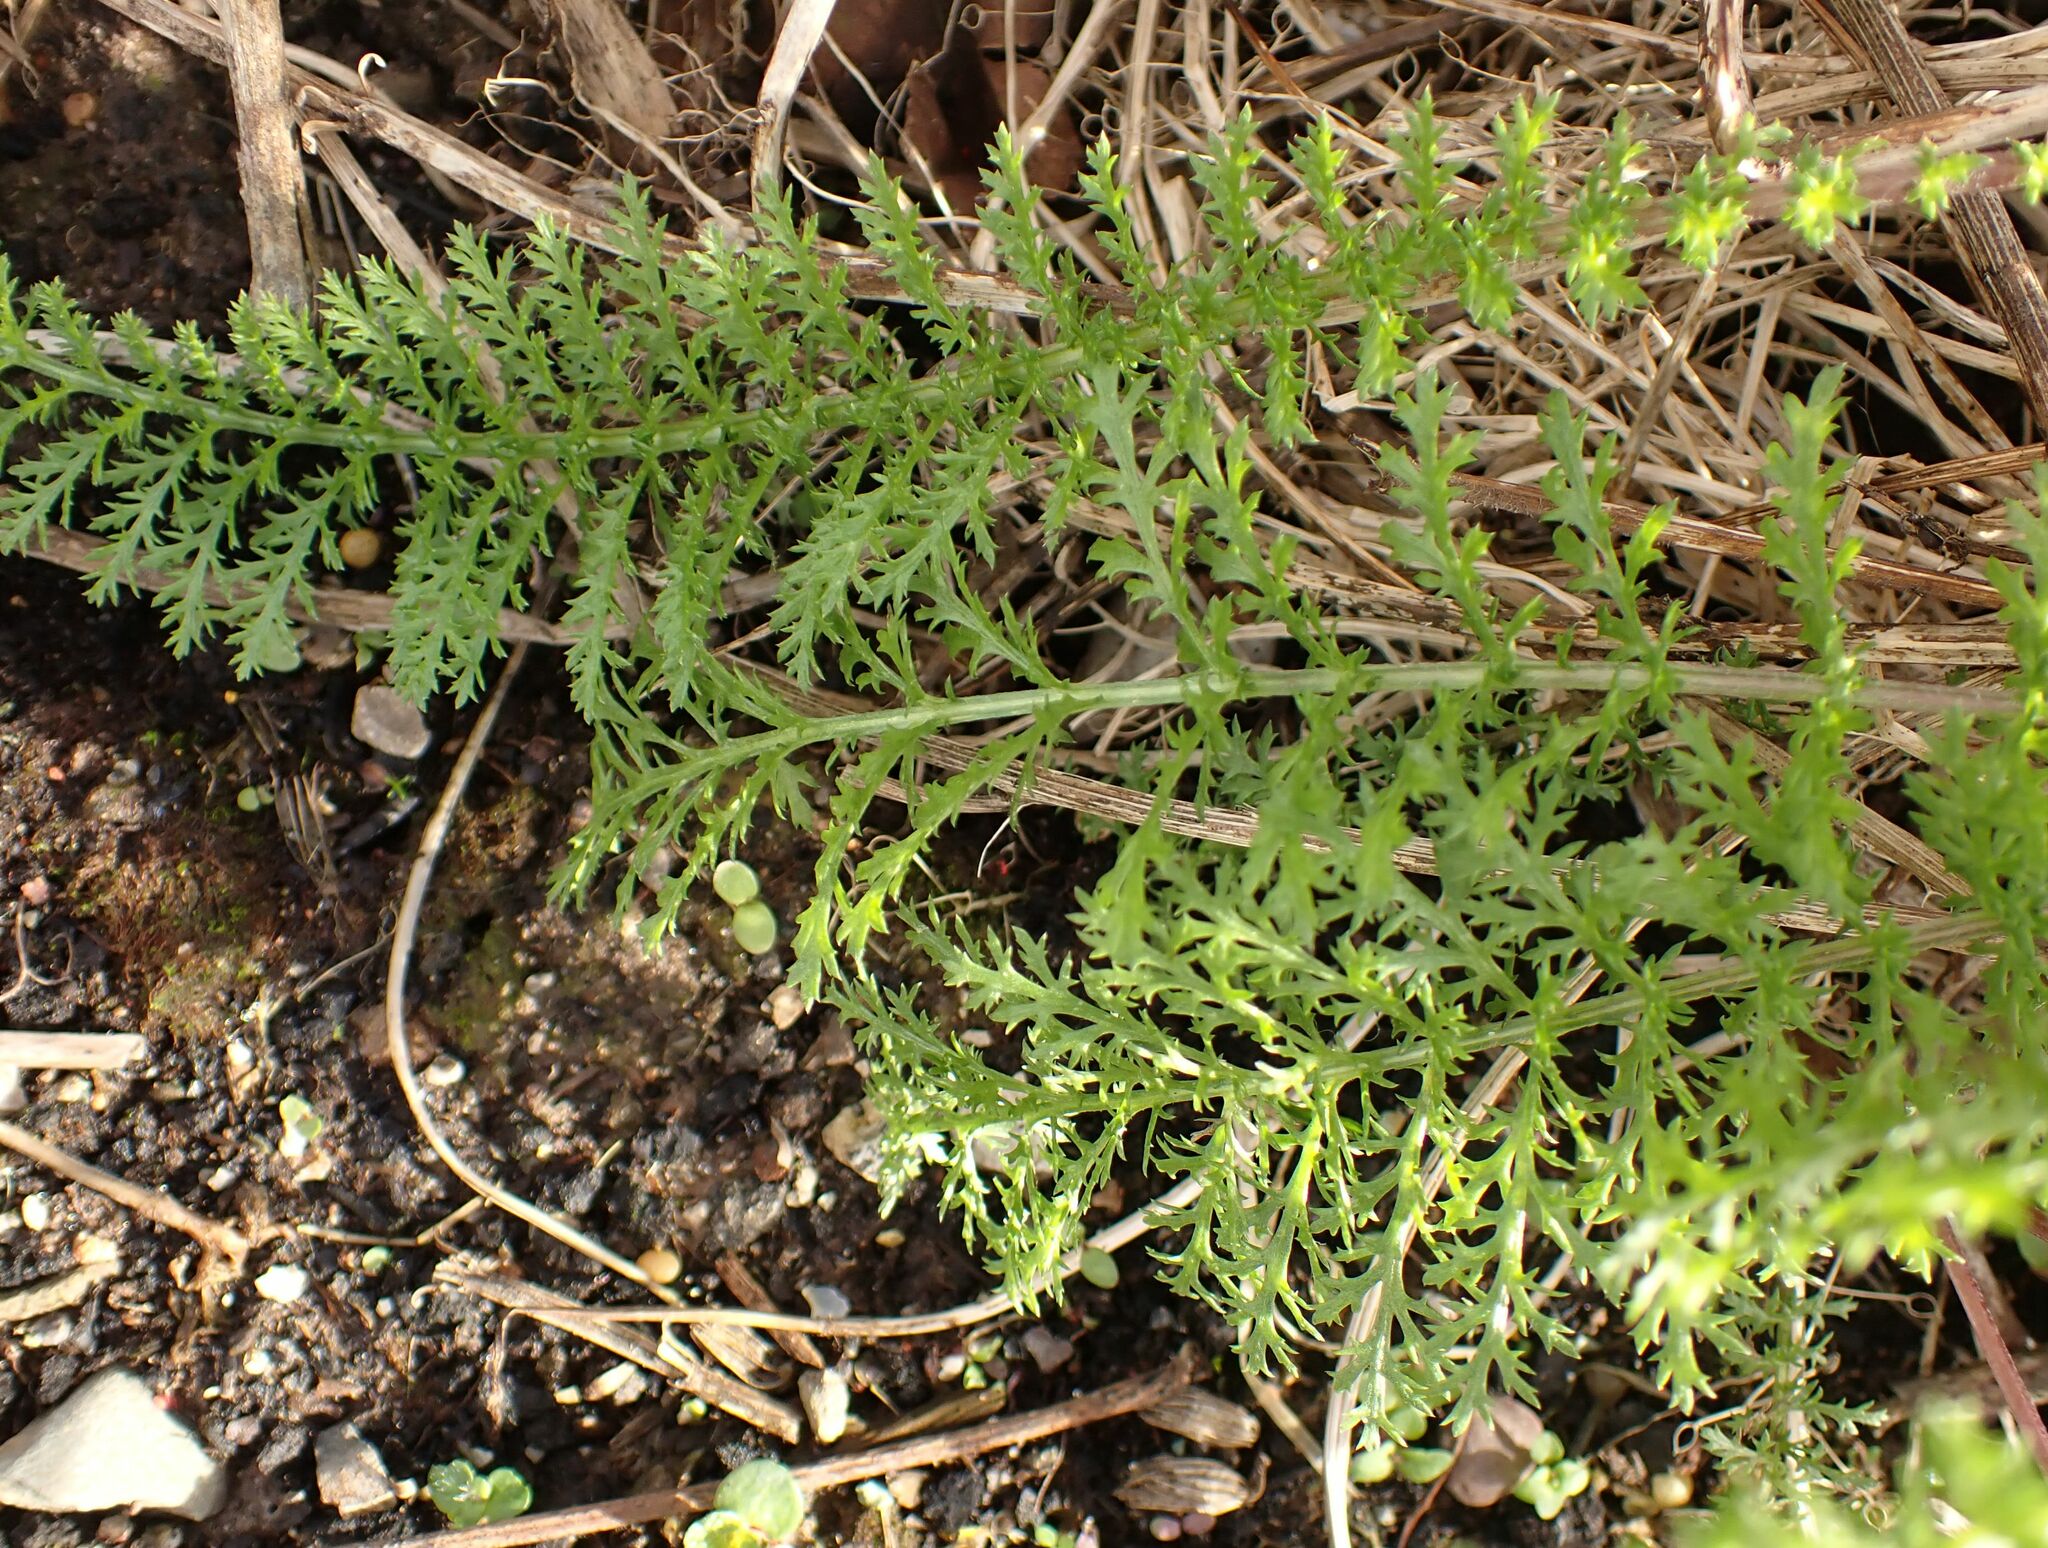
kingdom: Plantae
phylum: Tracheophyta
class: Magnoliopsida
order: Asterales
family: Asteraceae
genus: Achillea
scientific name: Achillea millefolium
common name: Yarrow
